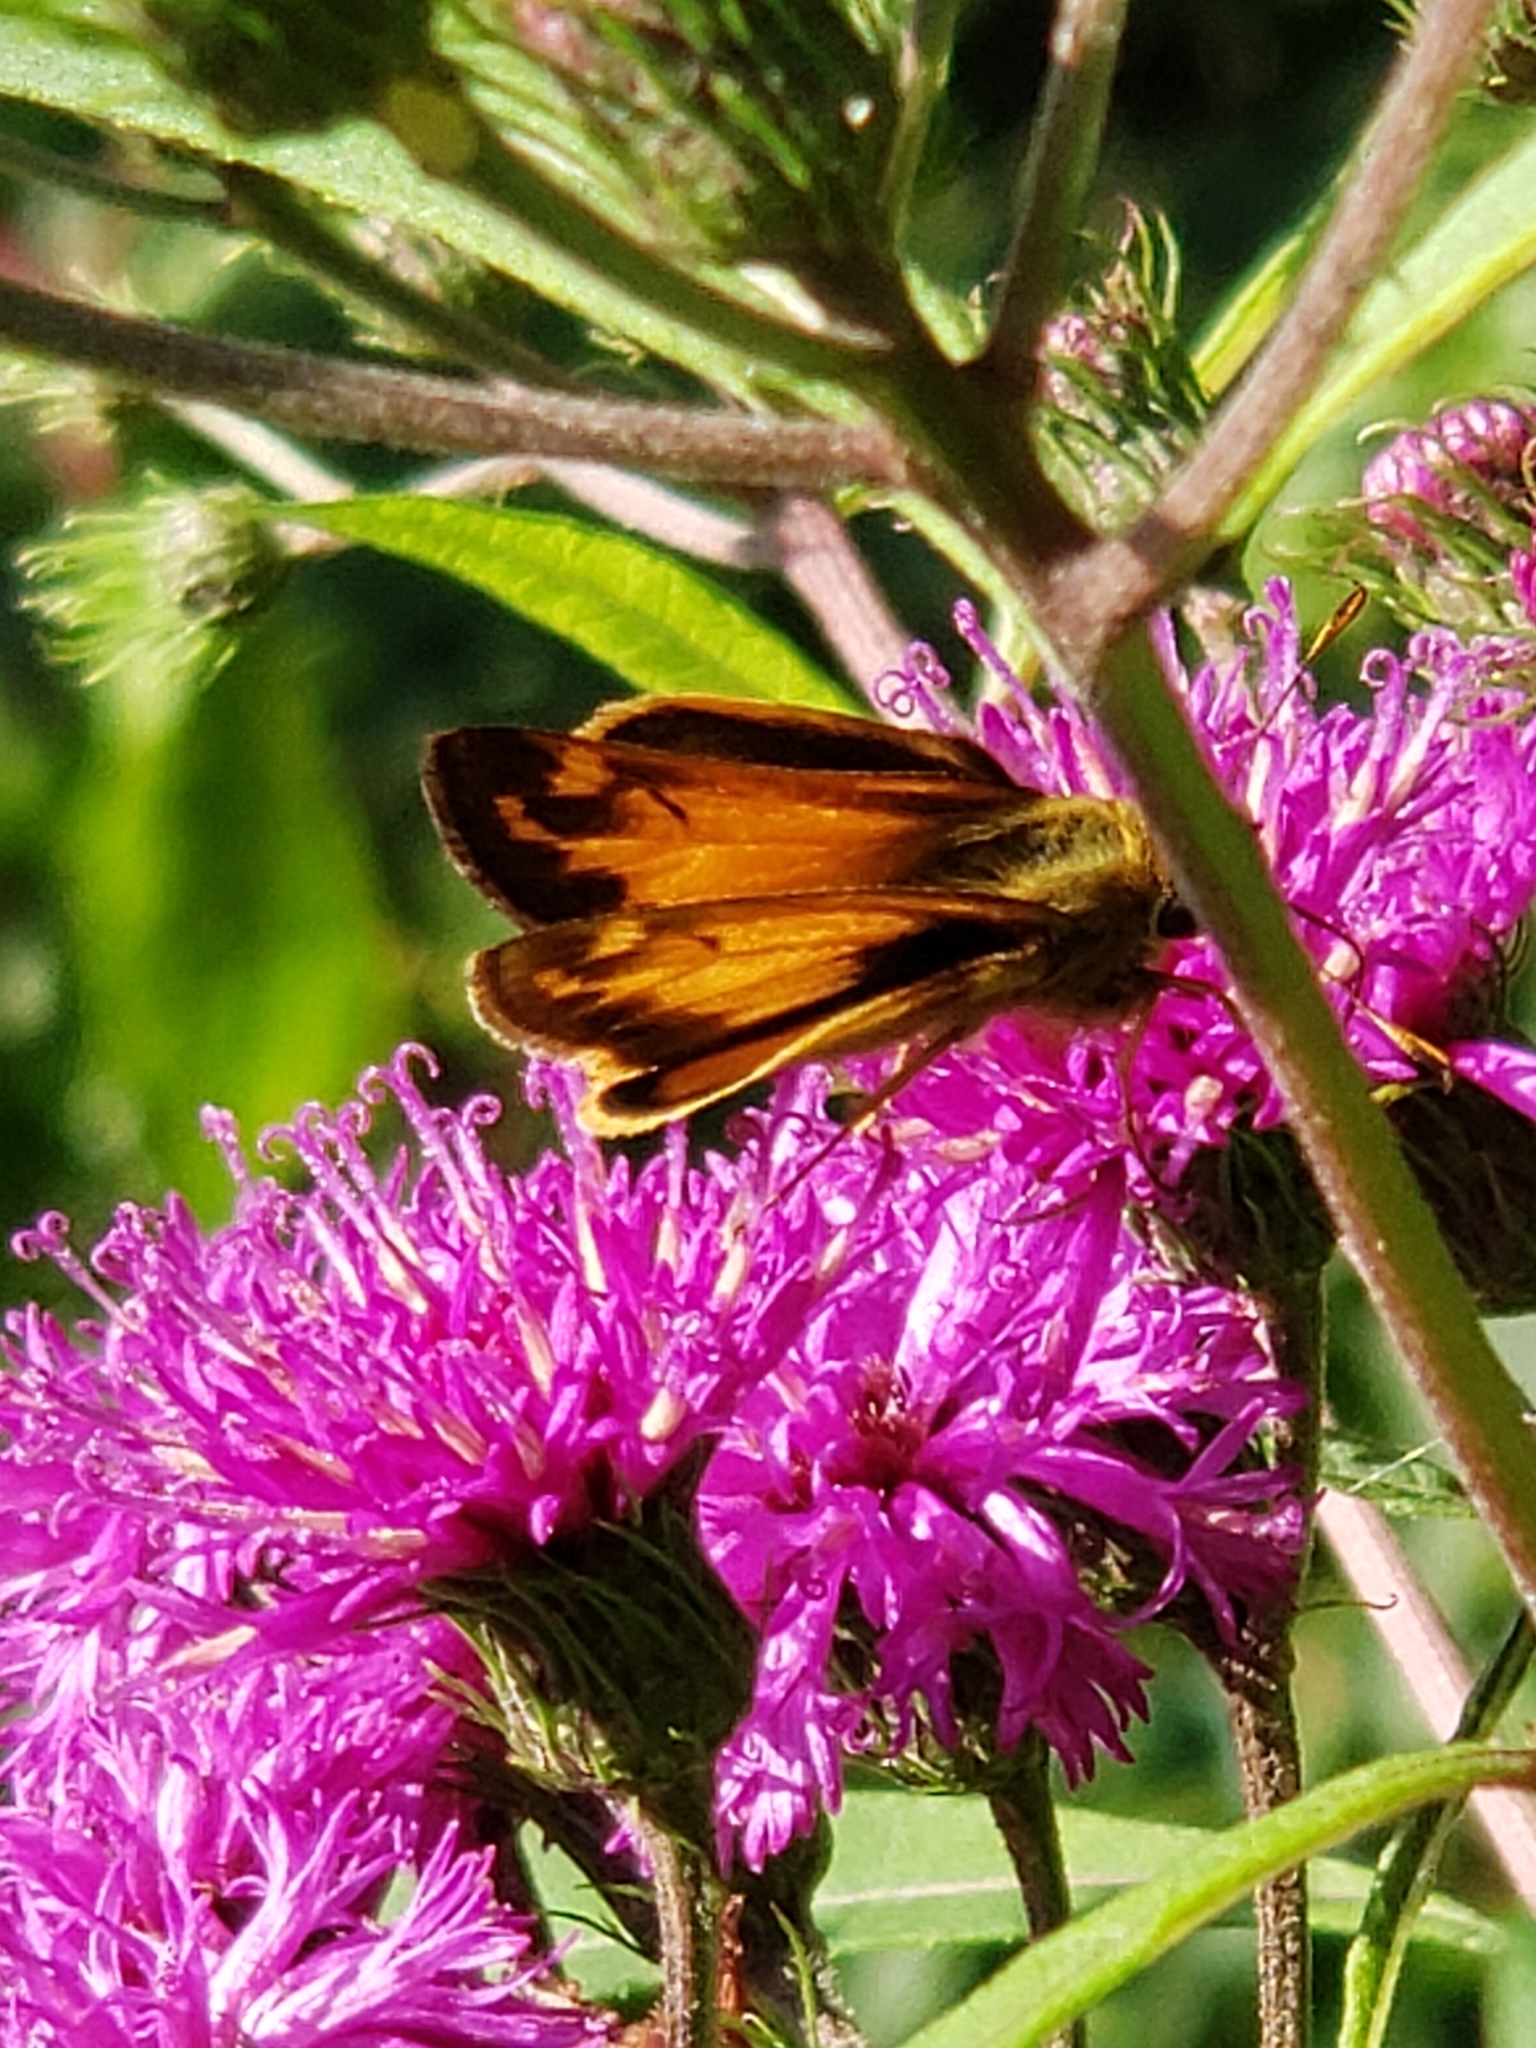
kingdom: Animalia
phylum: Arthropoda
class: Insecta
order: Lepidoptera
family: Hesperiidae
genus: Lon
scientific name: Lon zabulon
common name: Zabulon skipper
